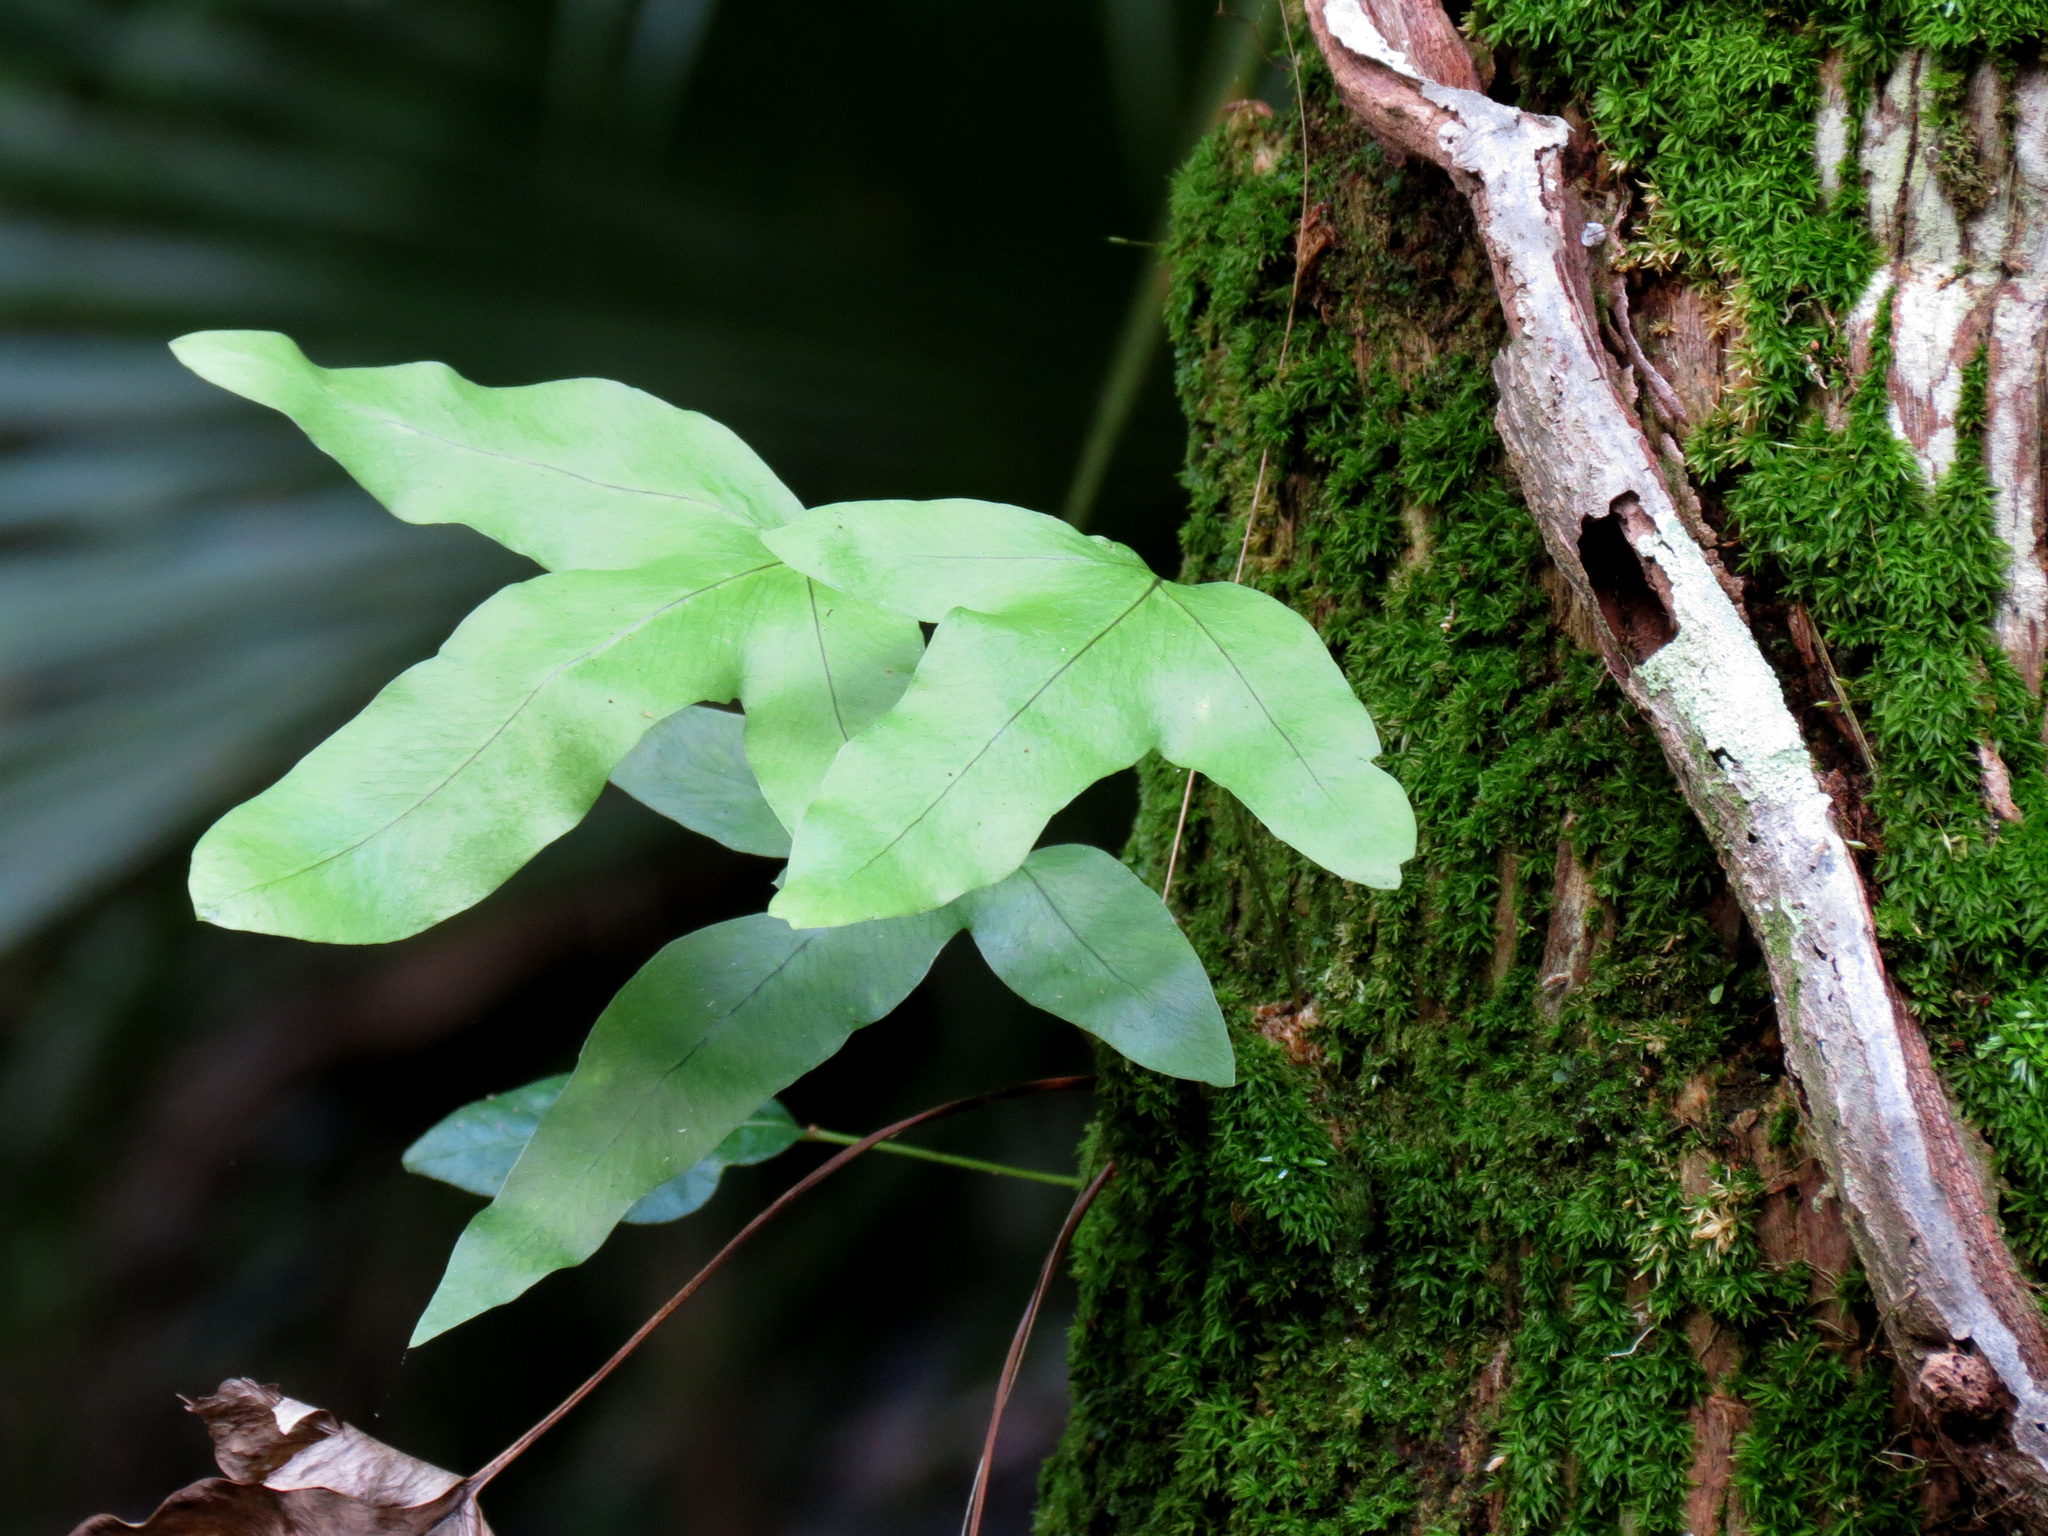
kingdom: Plantae
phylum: Tracheophyta
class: Polypodiopsida
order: Polypodiales
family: Polypodiaceae
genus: Phlebodium
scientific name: Phlebodium aureum
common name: Gold-foot fern
